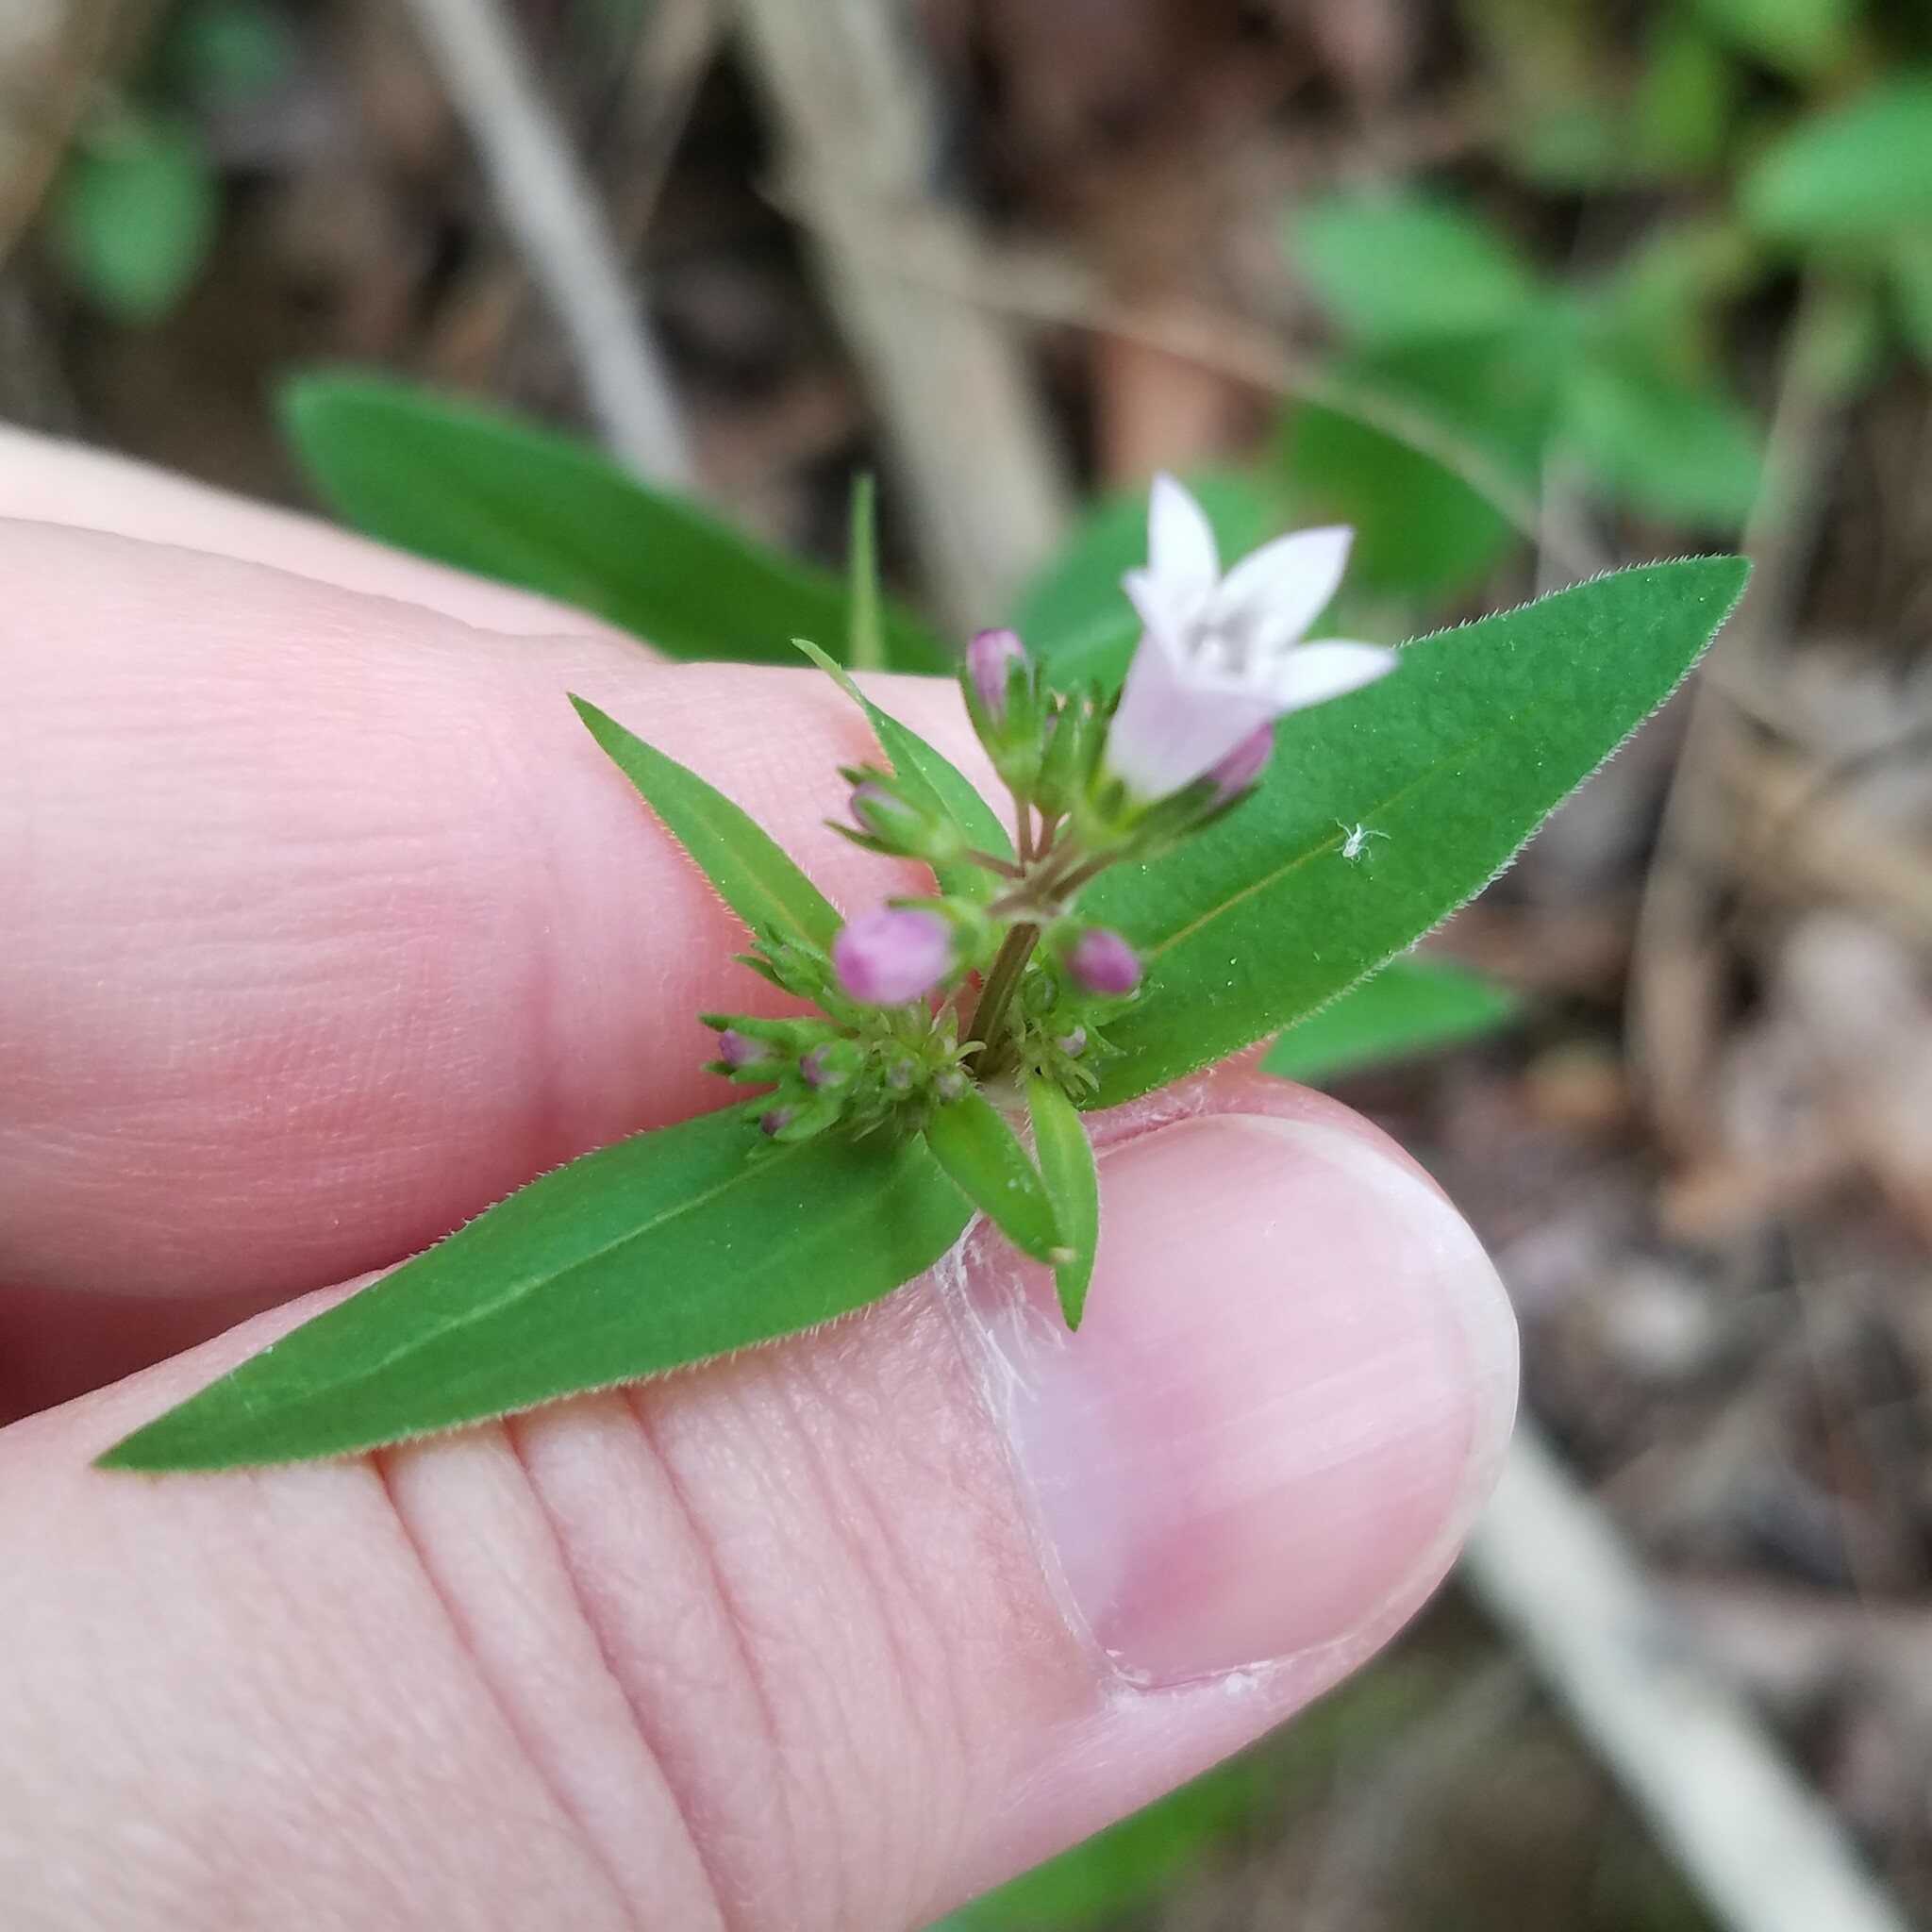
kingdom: Plantae
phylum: Tracheophyta
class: Magnoliopsida
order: Gentianales
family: Rubiaceae
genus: Houstonia
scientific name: Houstonia purpurea
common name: Summer bluet
